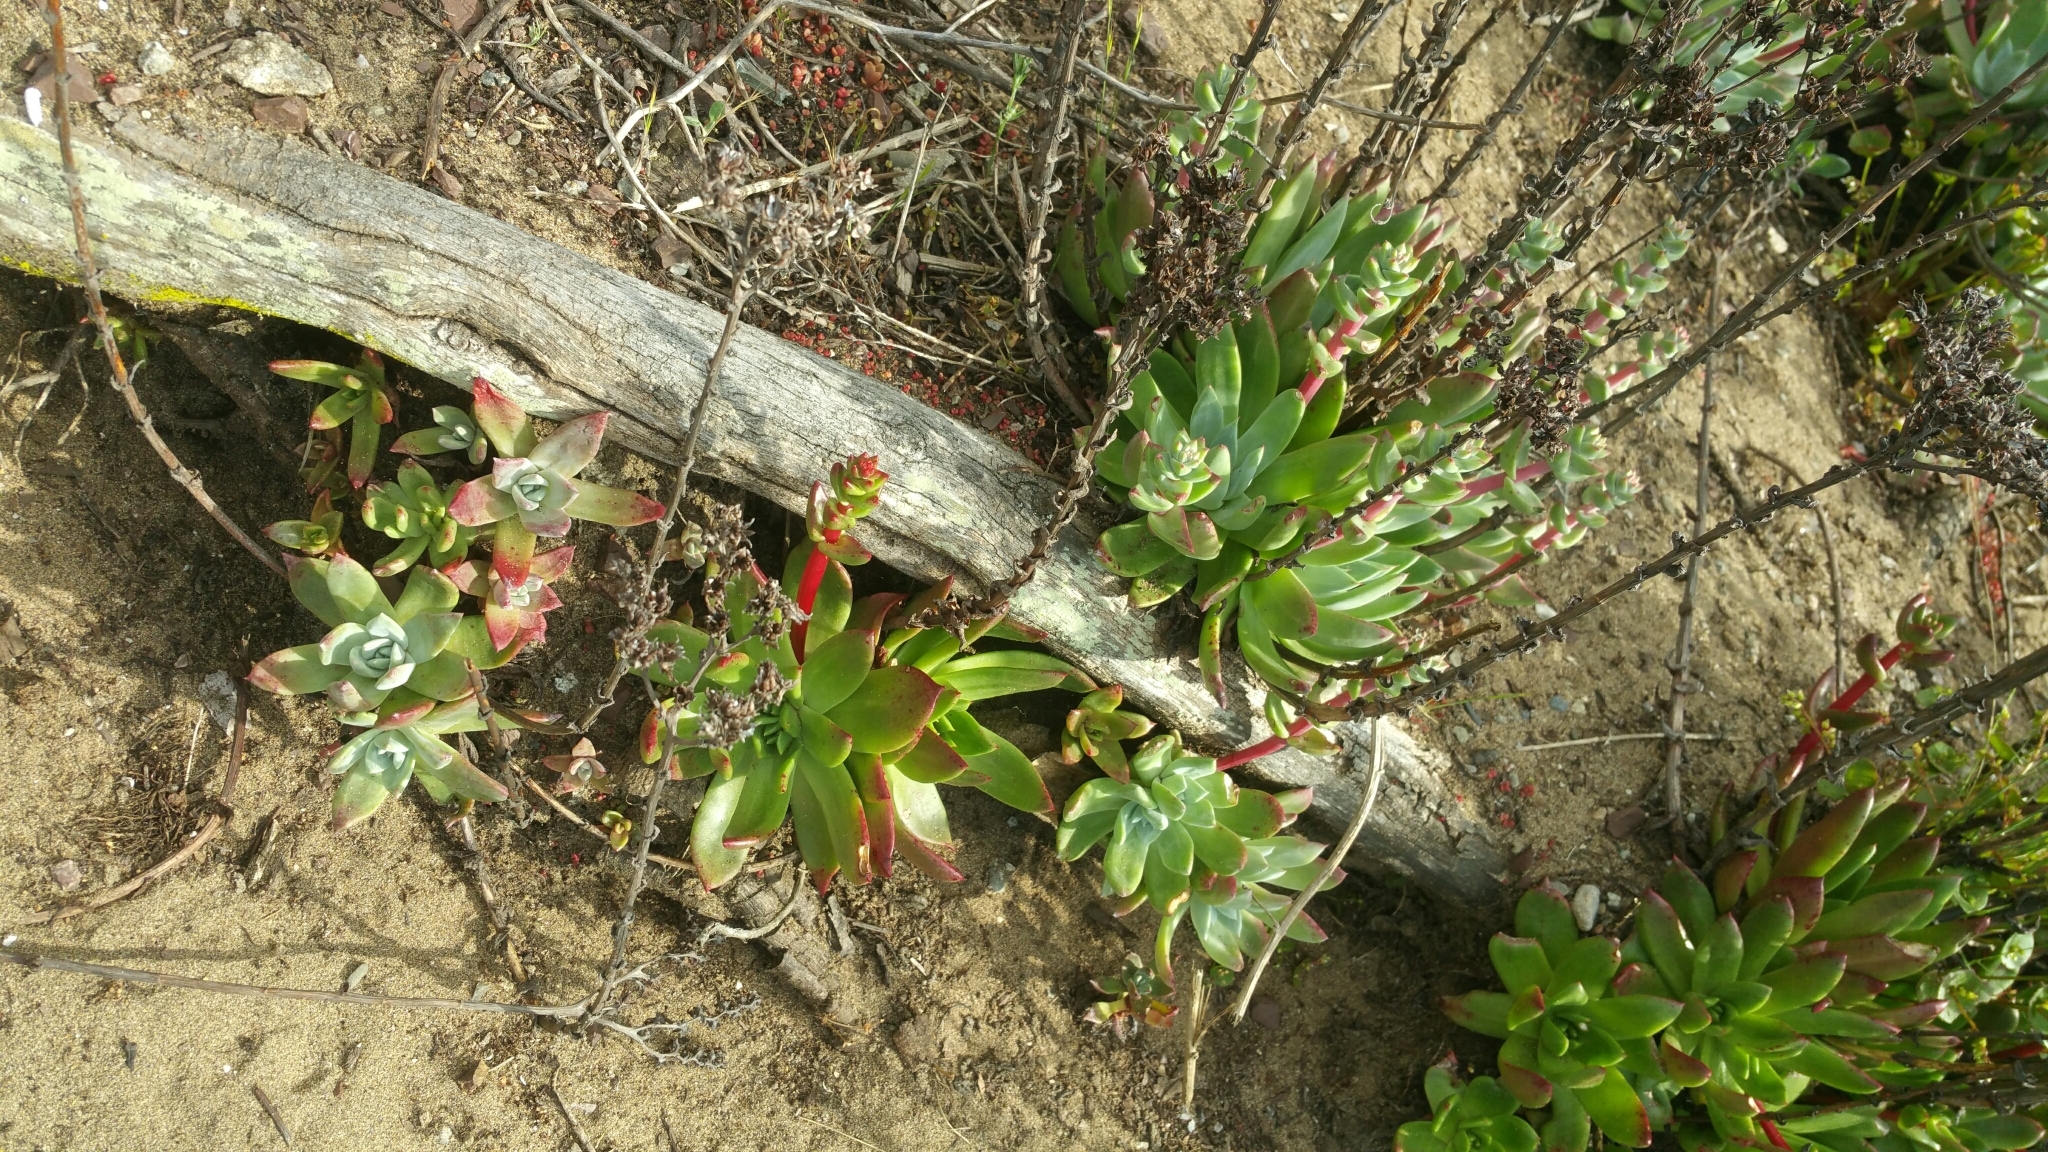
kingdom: Plantae
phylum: Tracheophyta
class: Magnoliopsida
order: Saxifragales
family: Crassulaceae
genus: Dudleya
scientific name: Dudleya farinosa
